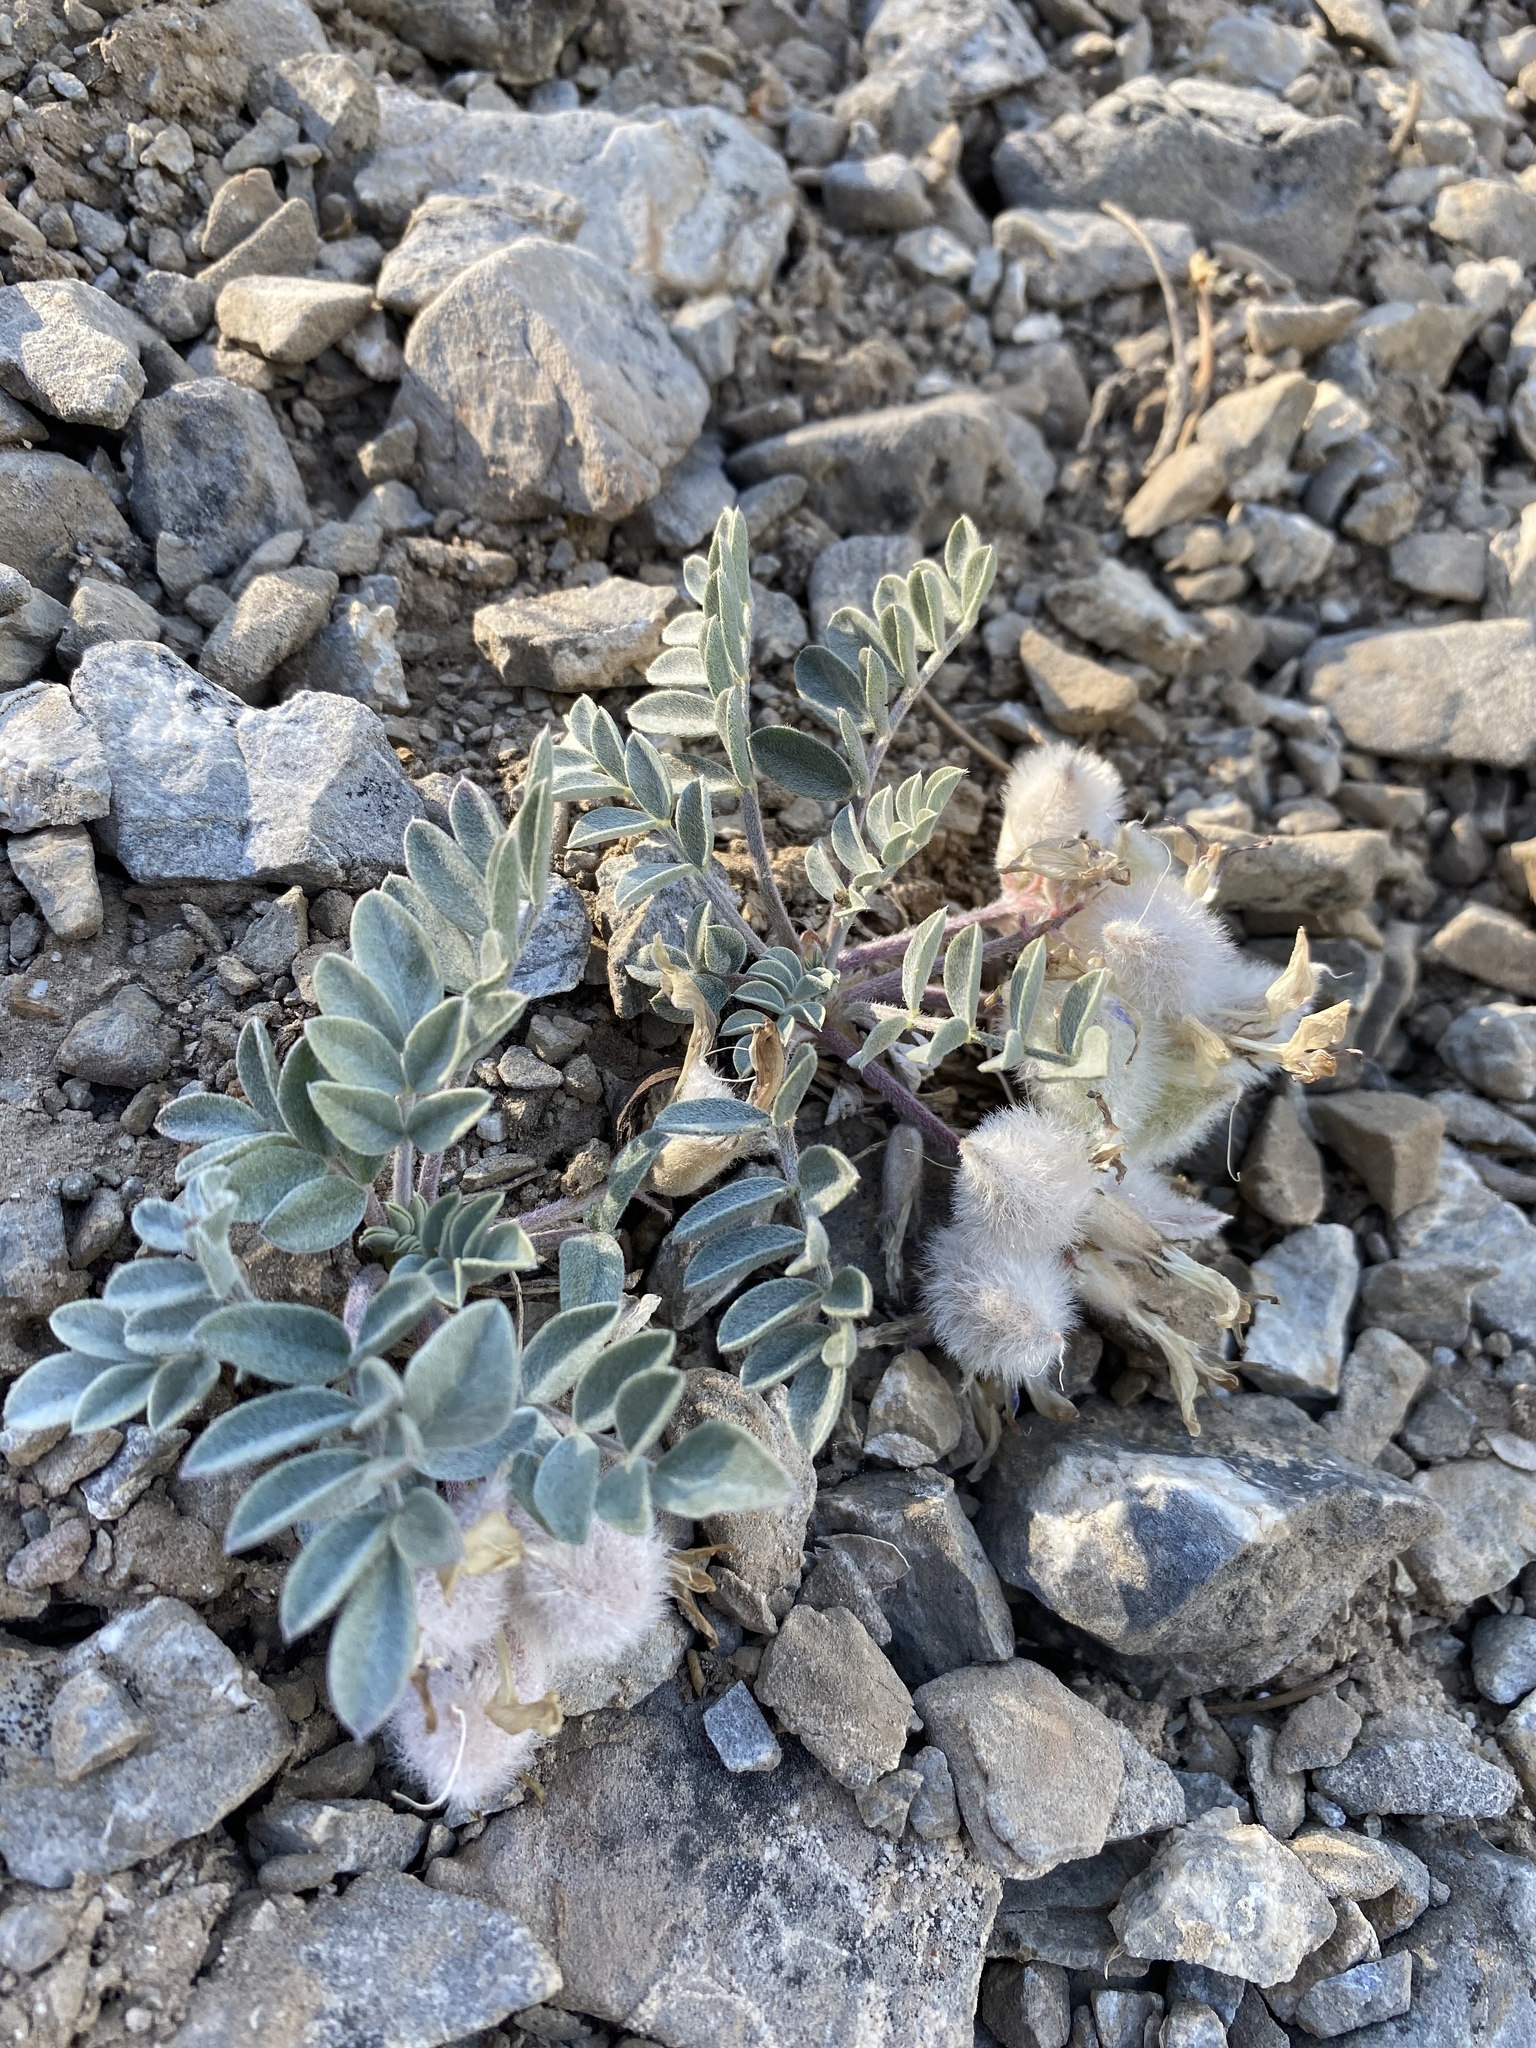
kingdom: Plantae
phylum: Tracheophyta
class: Magnoliopsida
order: Fabales
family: Fabaceae
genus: Astragalus
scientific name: Astragalus newberryi
